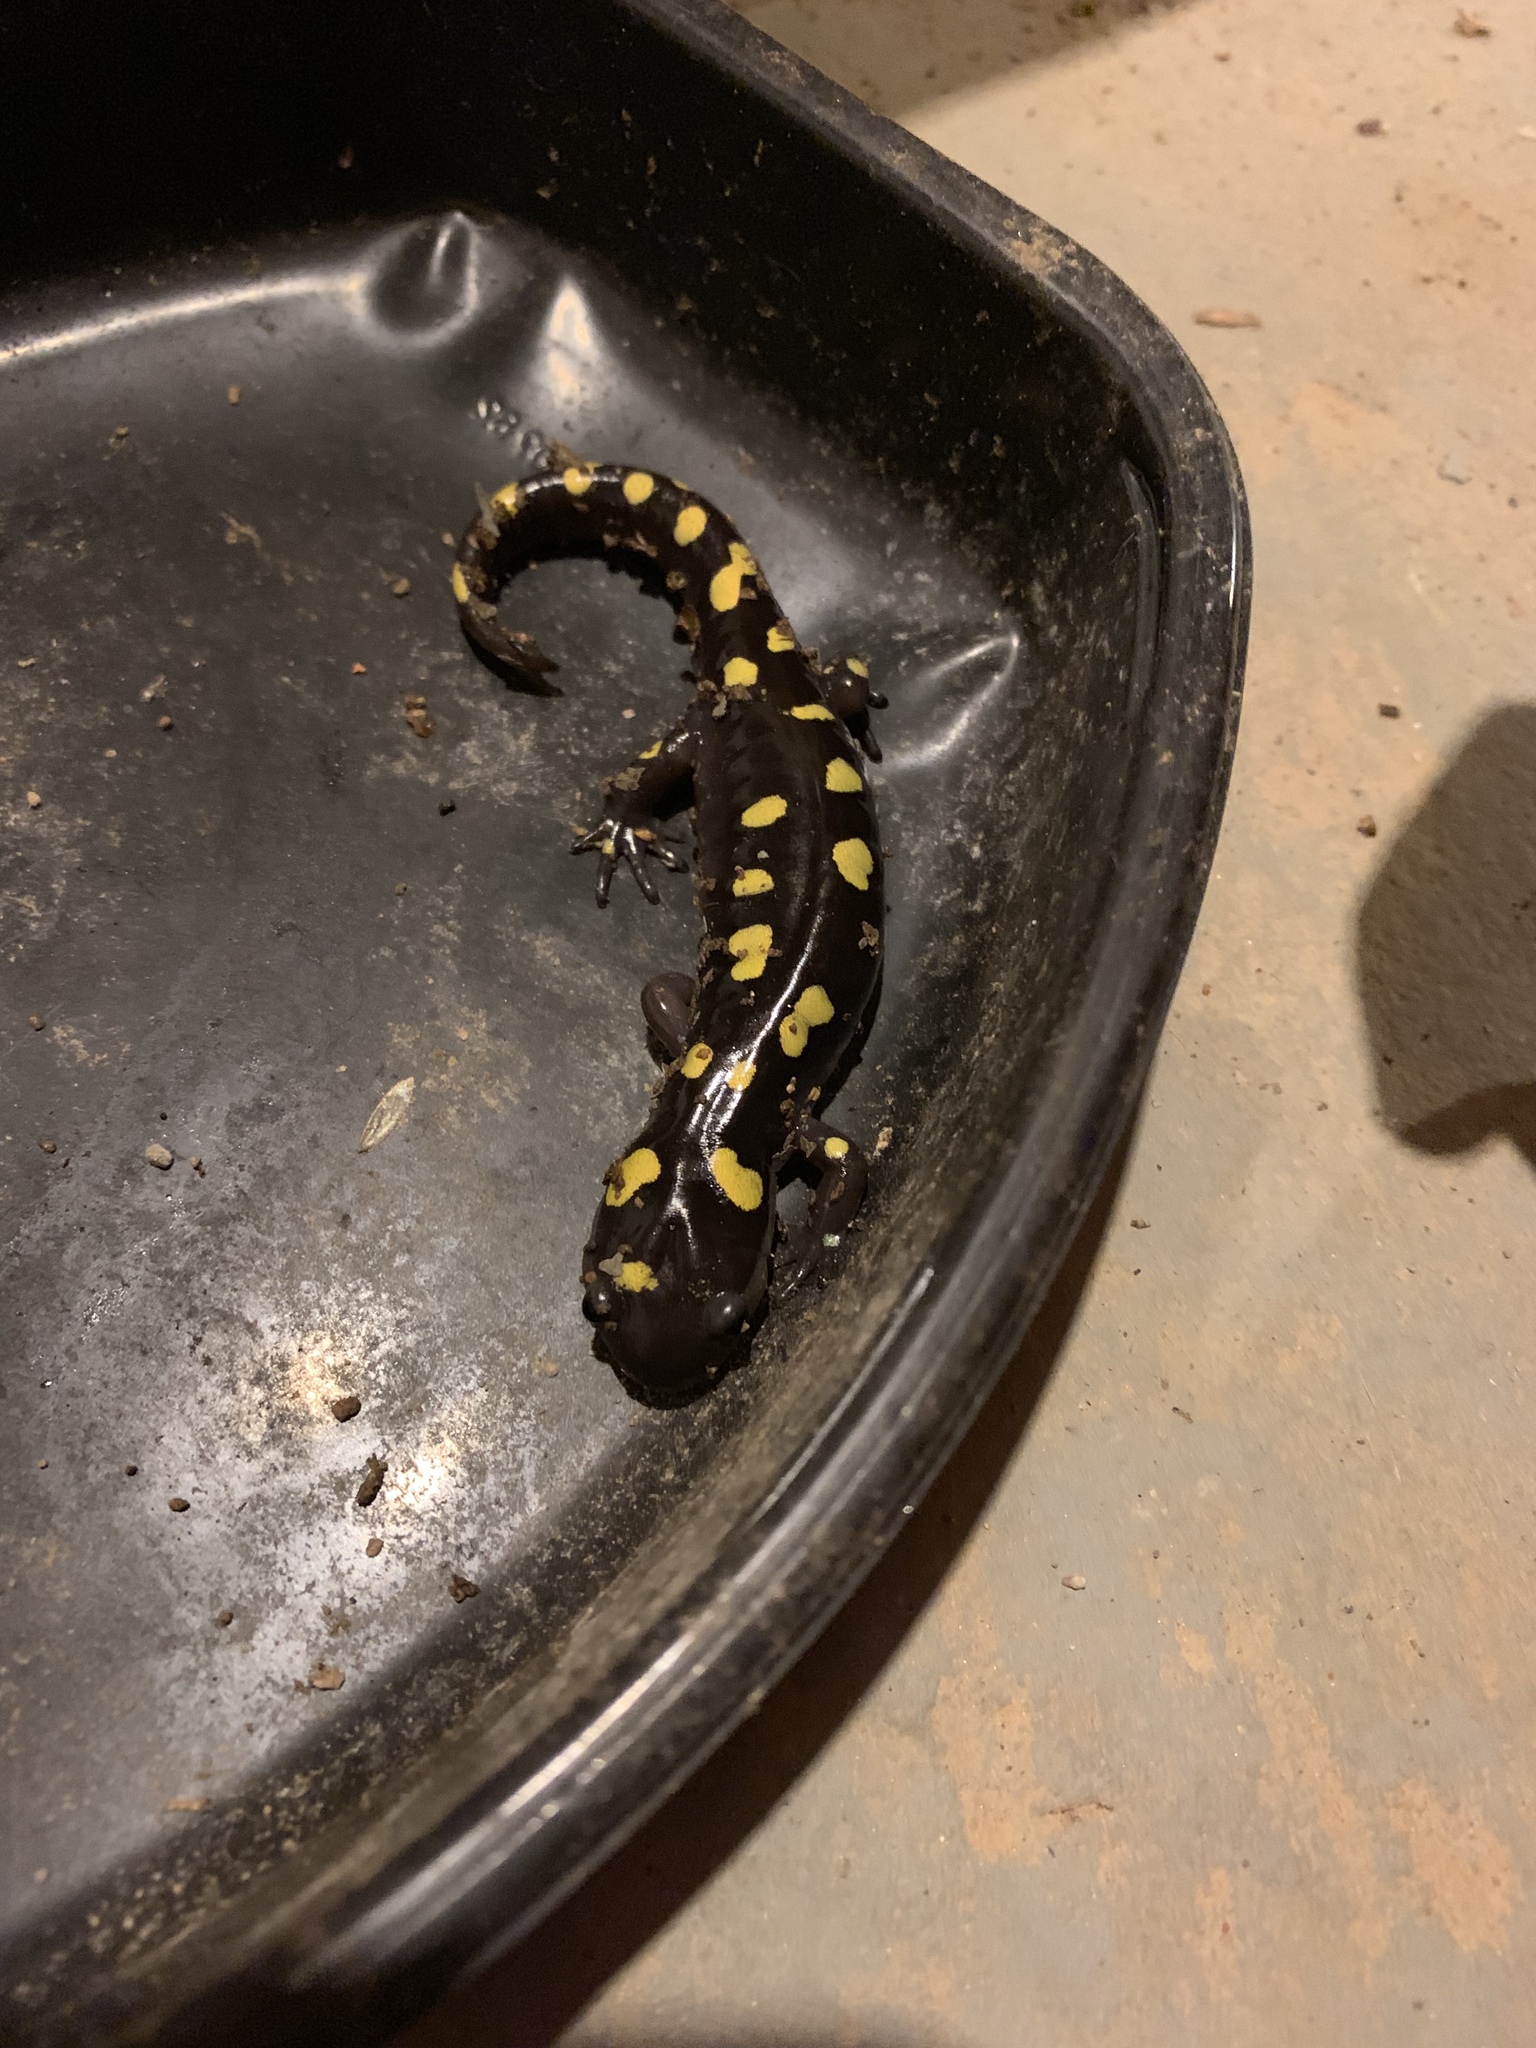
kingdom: Animalia
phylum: Chordata
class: Amphibia
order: Caudata
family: Ambystomatidae
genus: Ambystoma
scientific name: Ambystoma maculatum
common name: Spotted salamander
